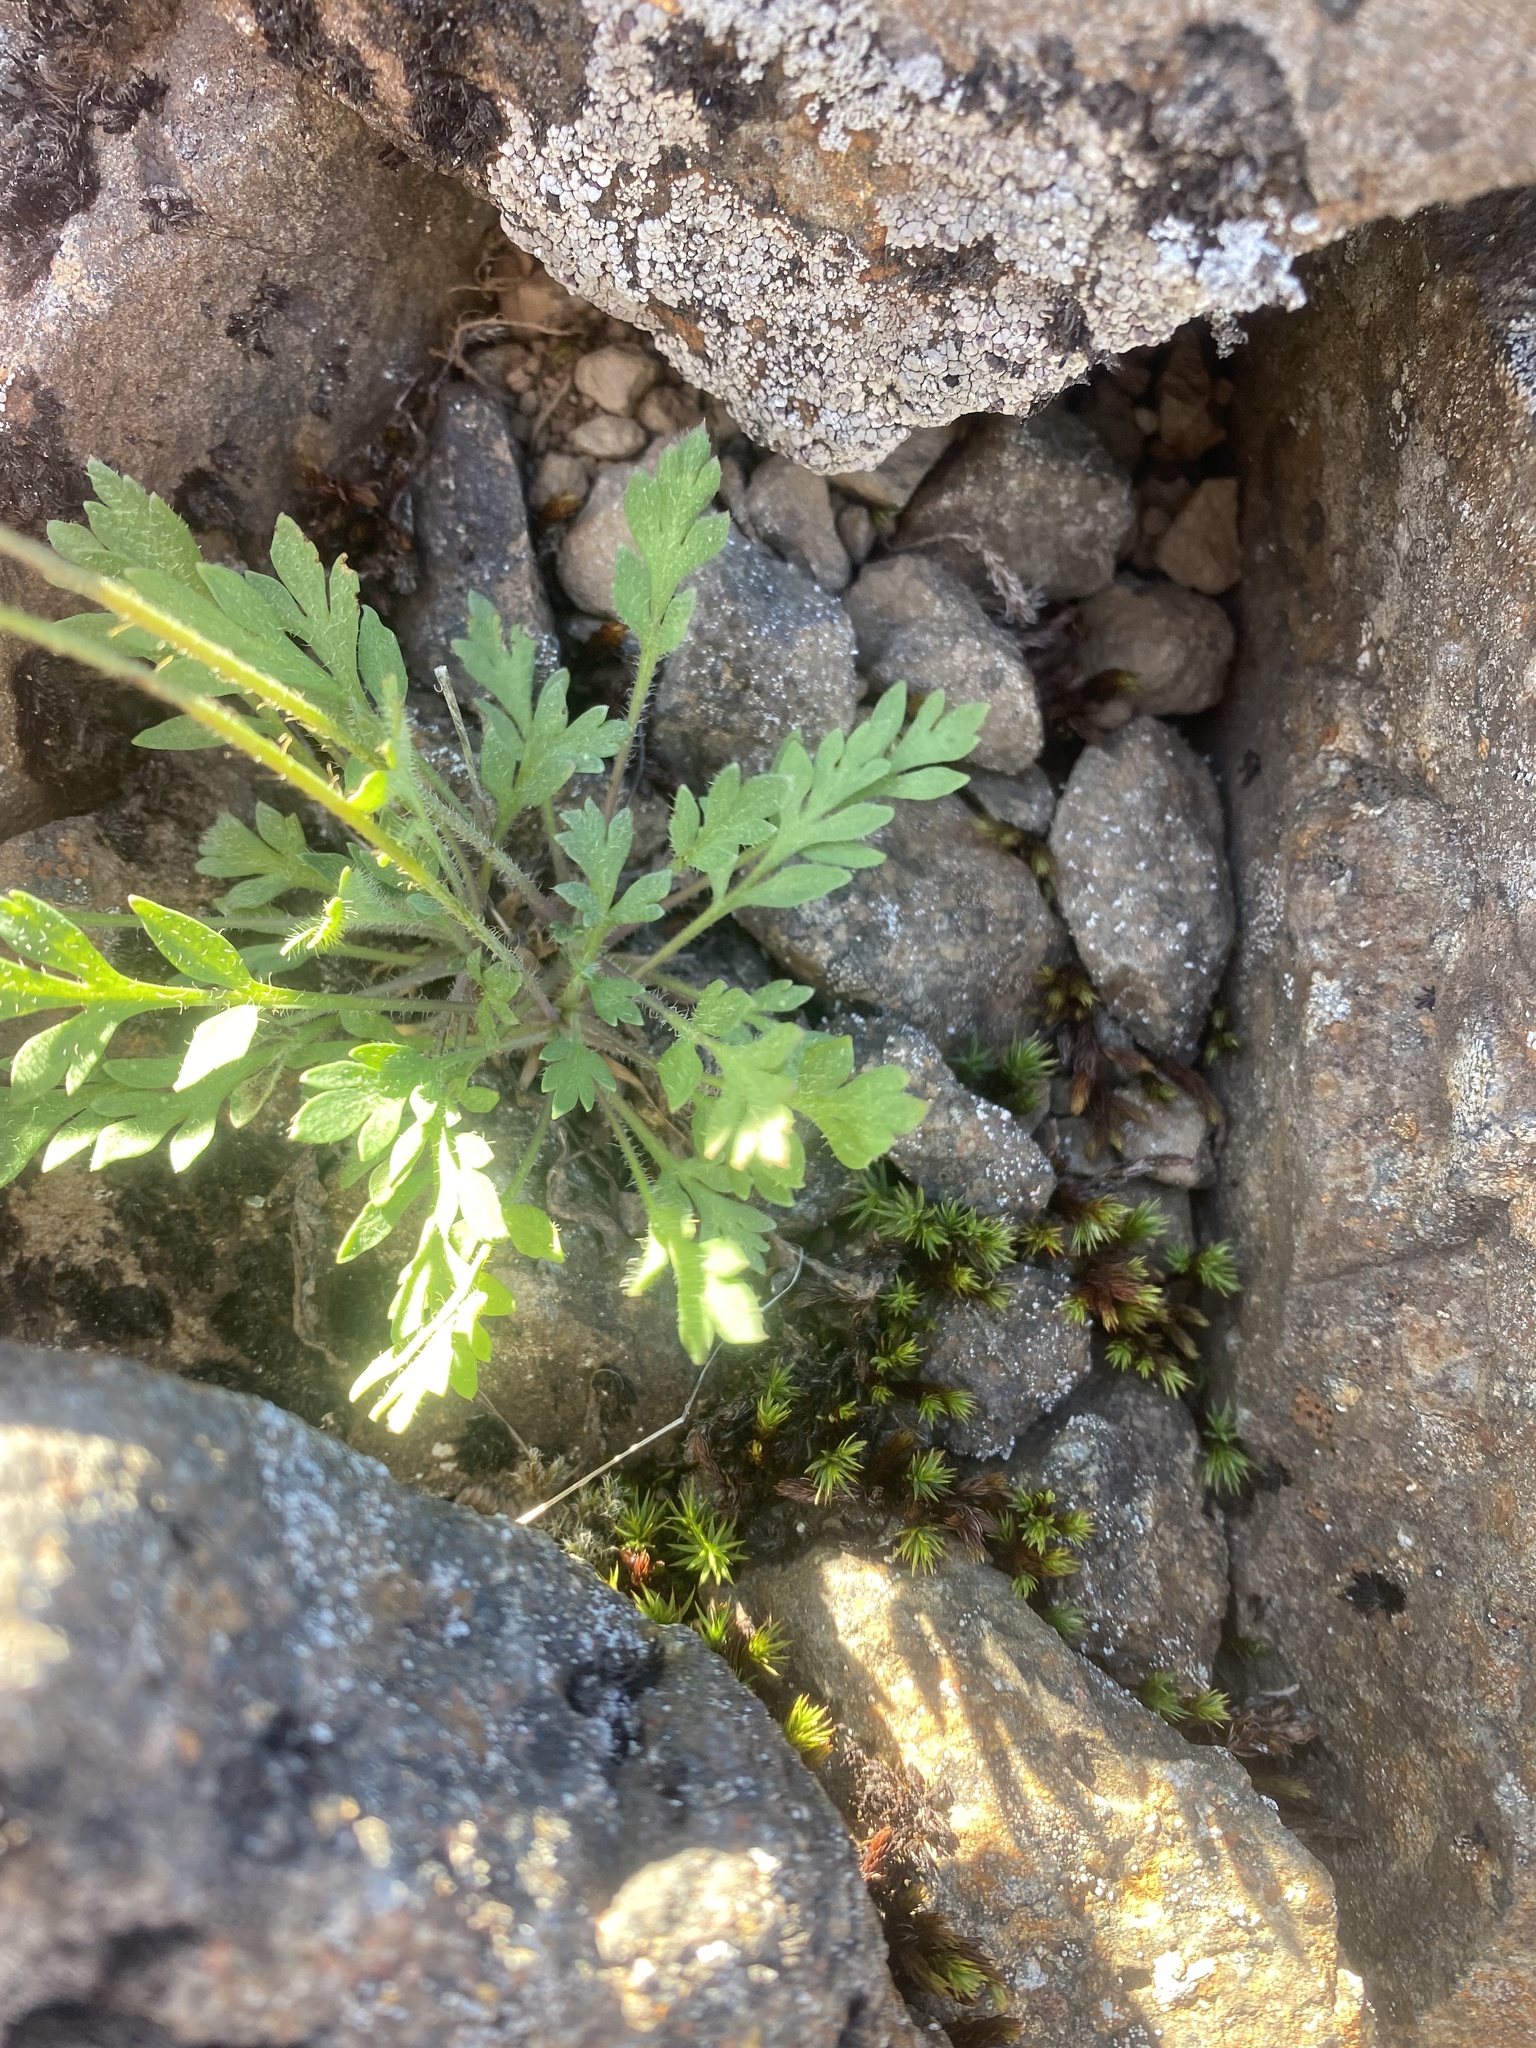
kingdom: Plantae
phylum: Tracheophyta
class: Magnoliopsida
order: Ranunculales
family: Papaveraceae
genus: Papaver
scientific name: Papaver variegatum
